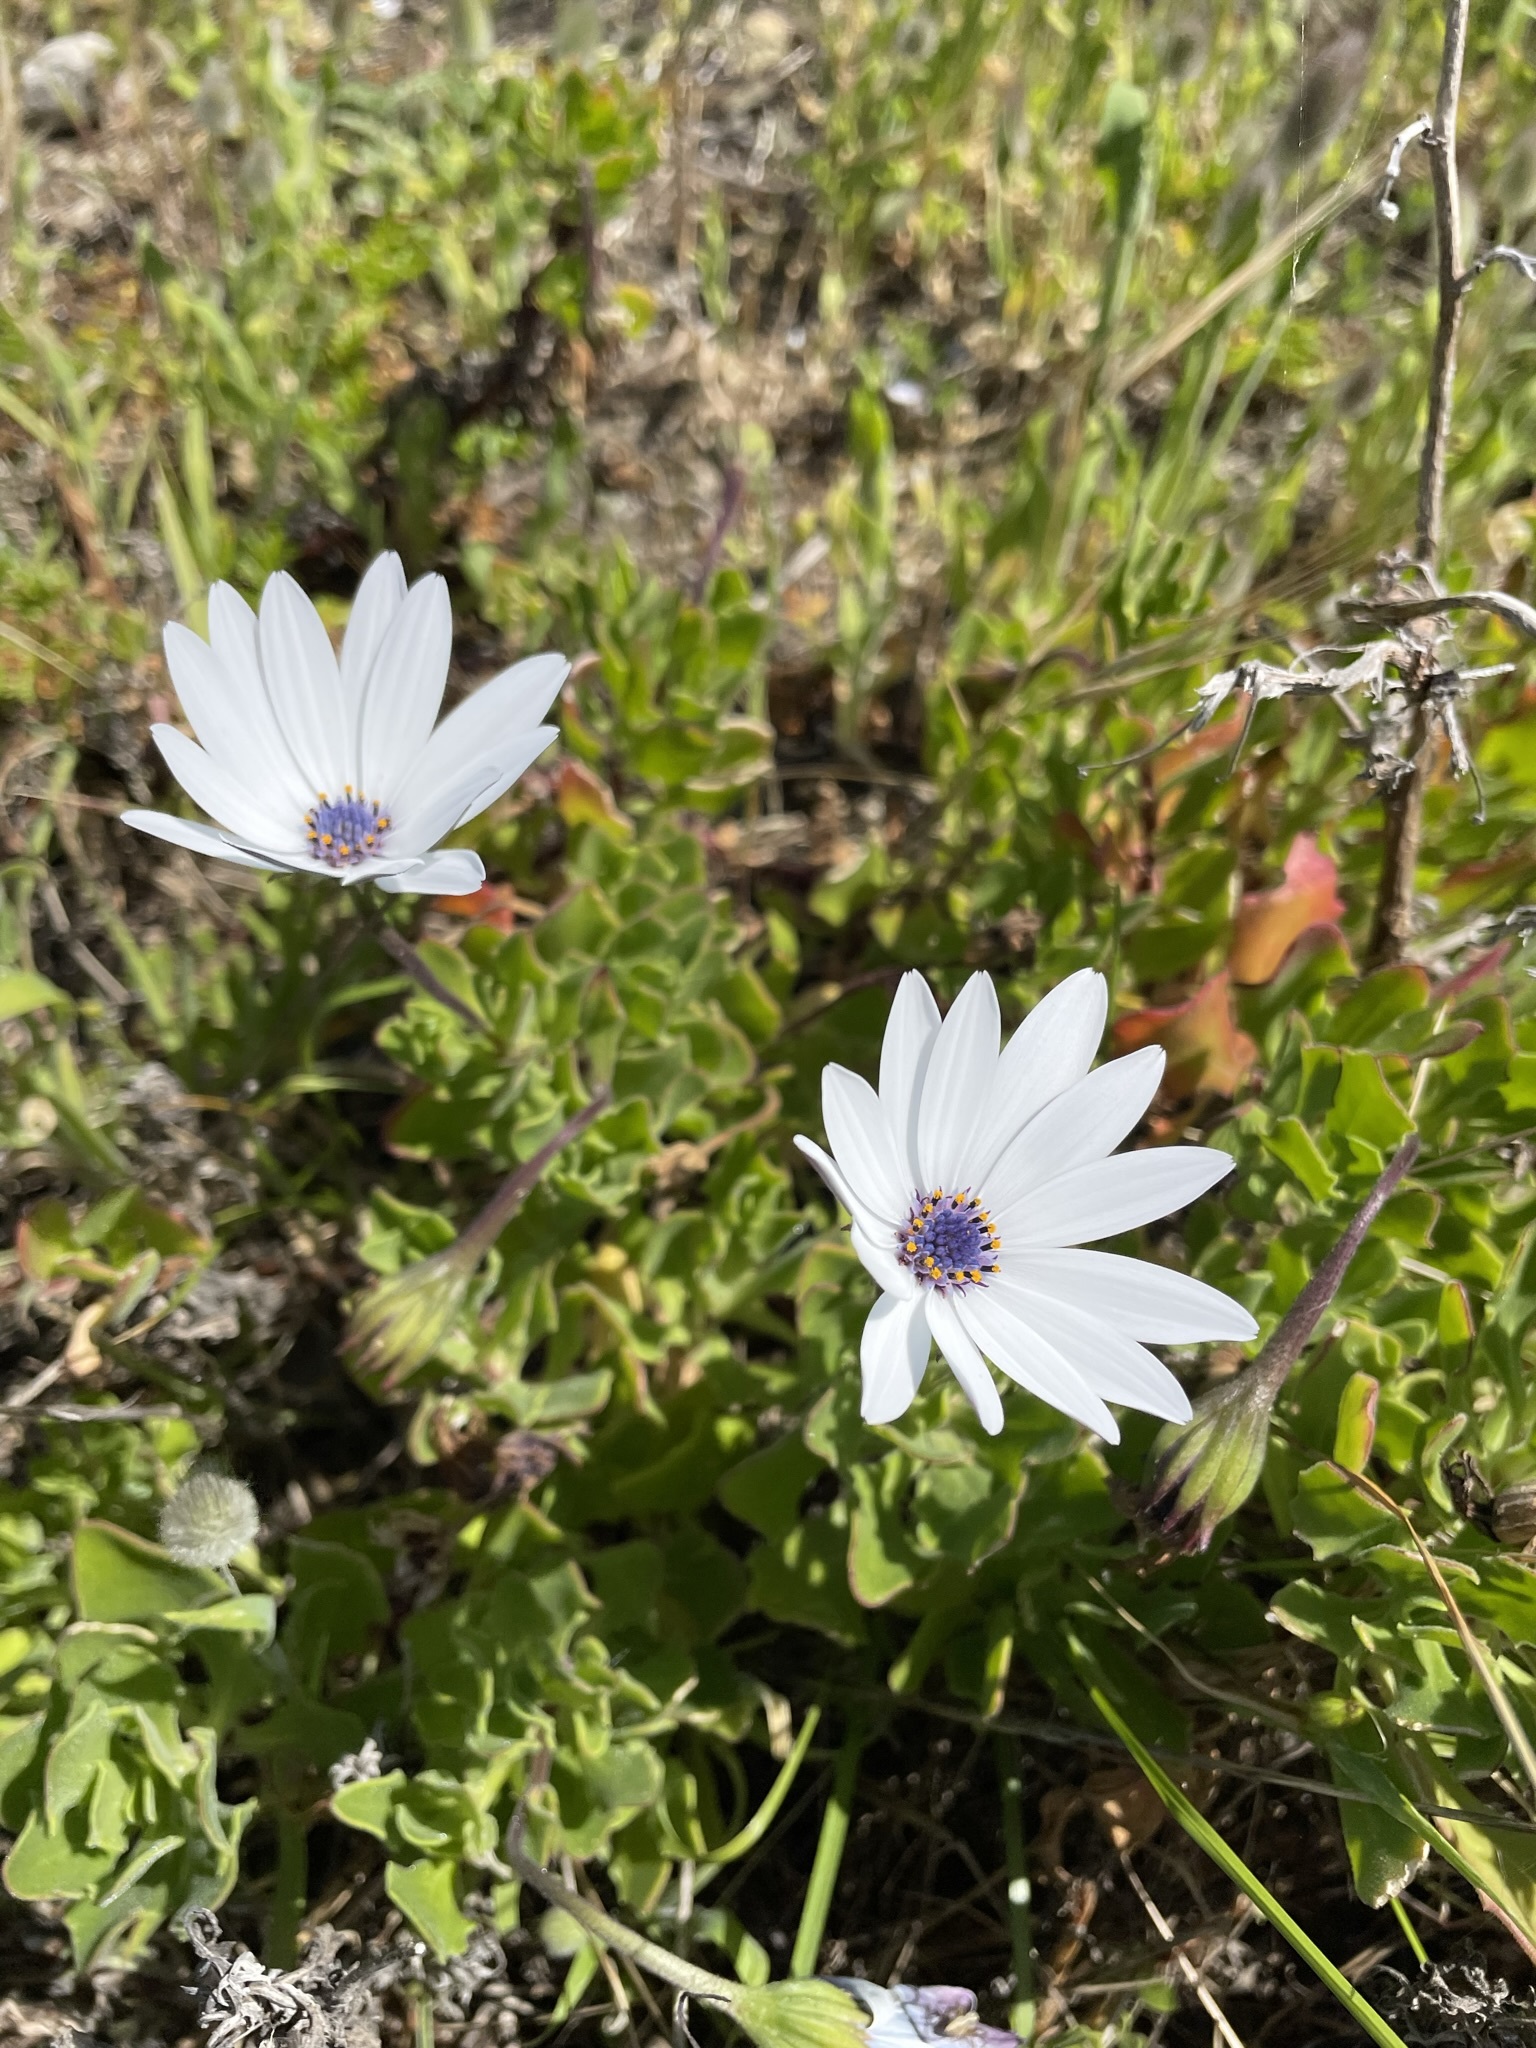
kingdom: Plantae
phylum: Tracheophyta
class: Magnoliopsida
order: Asterales
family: Asteraceae
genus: Dimorphotheca
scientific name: Dimorphotheca fruticosa
